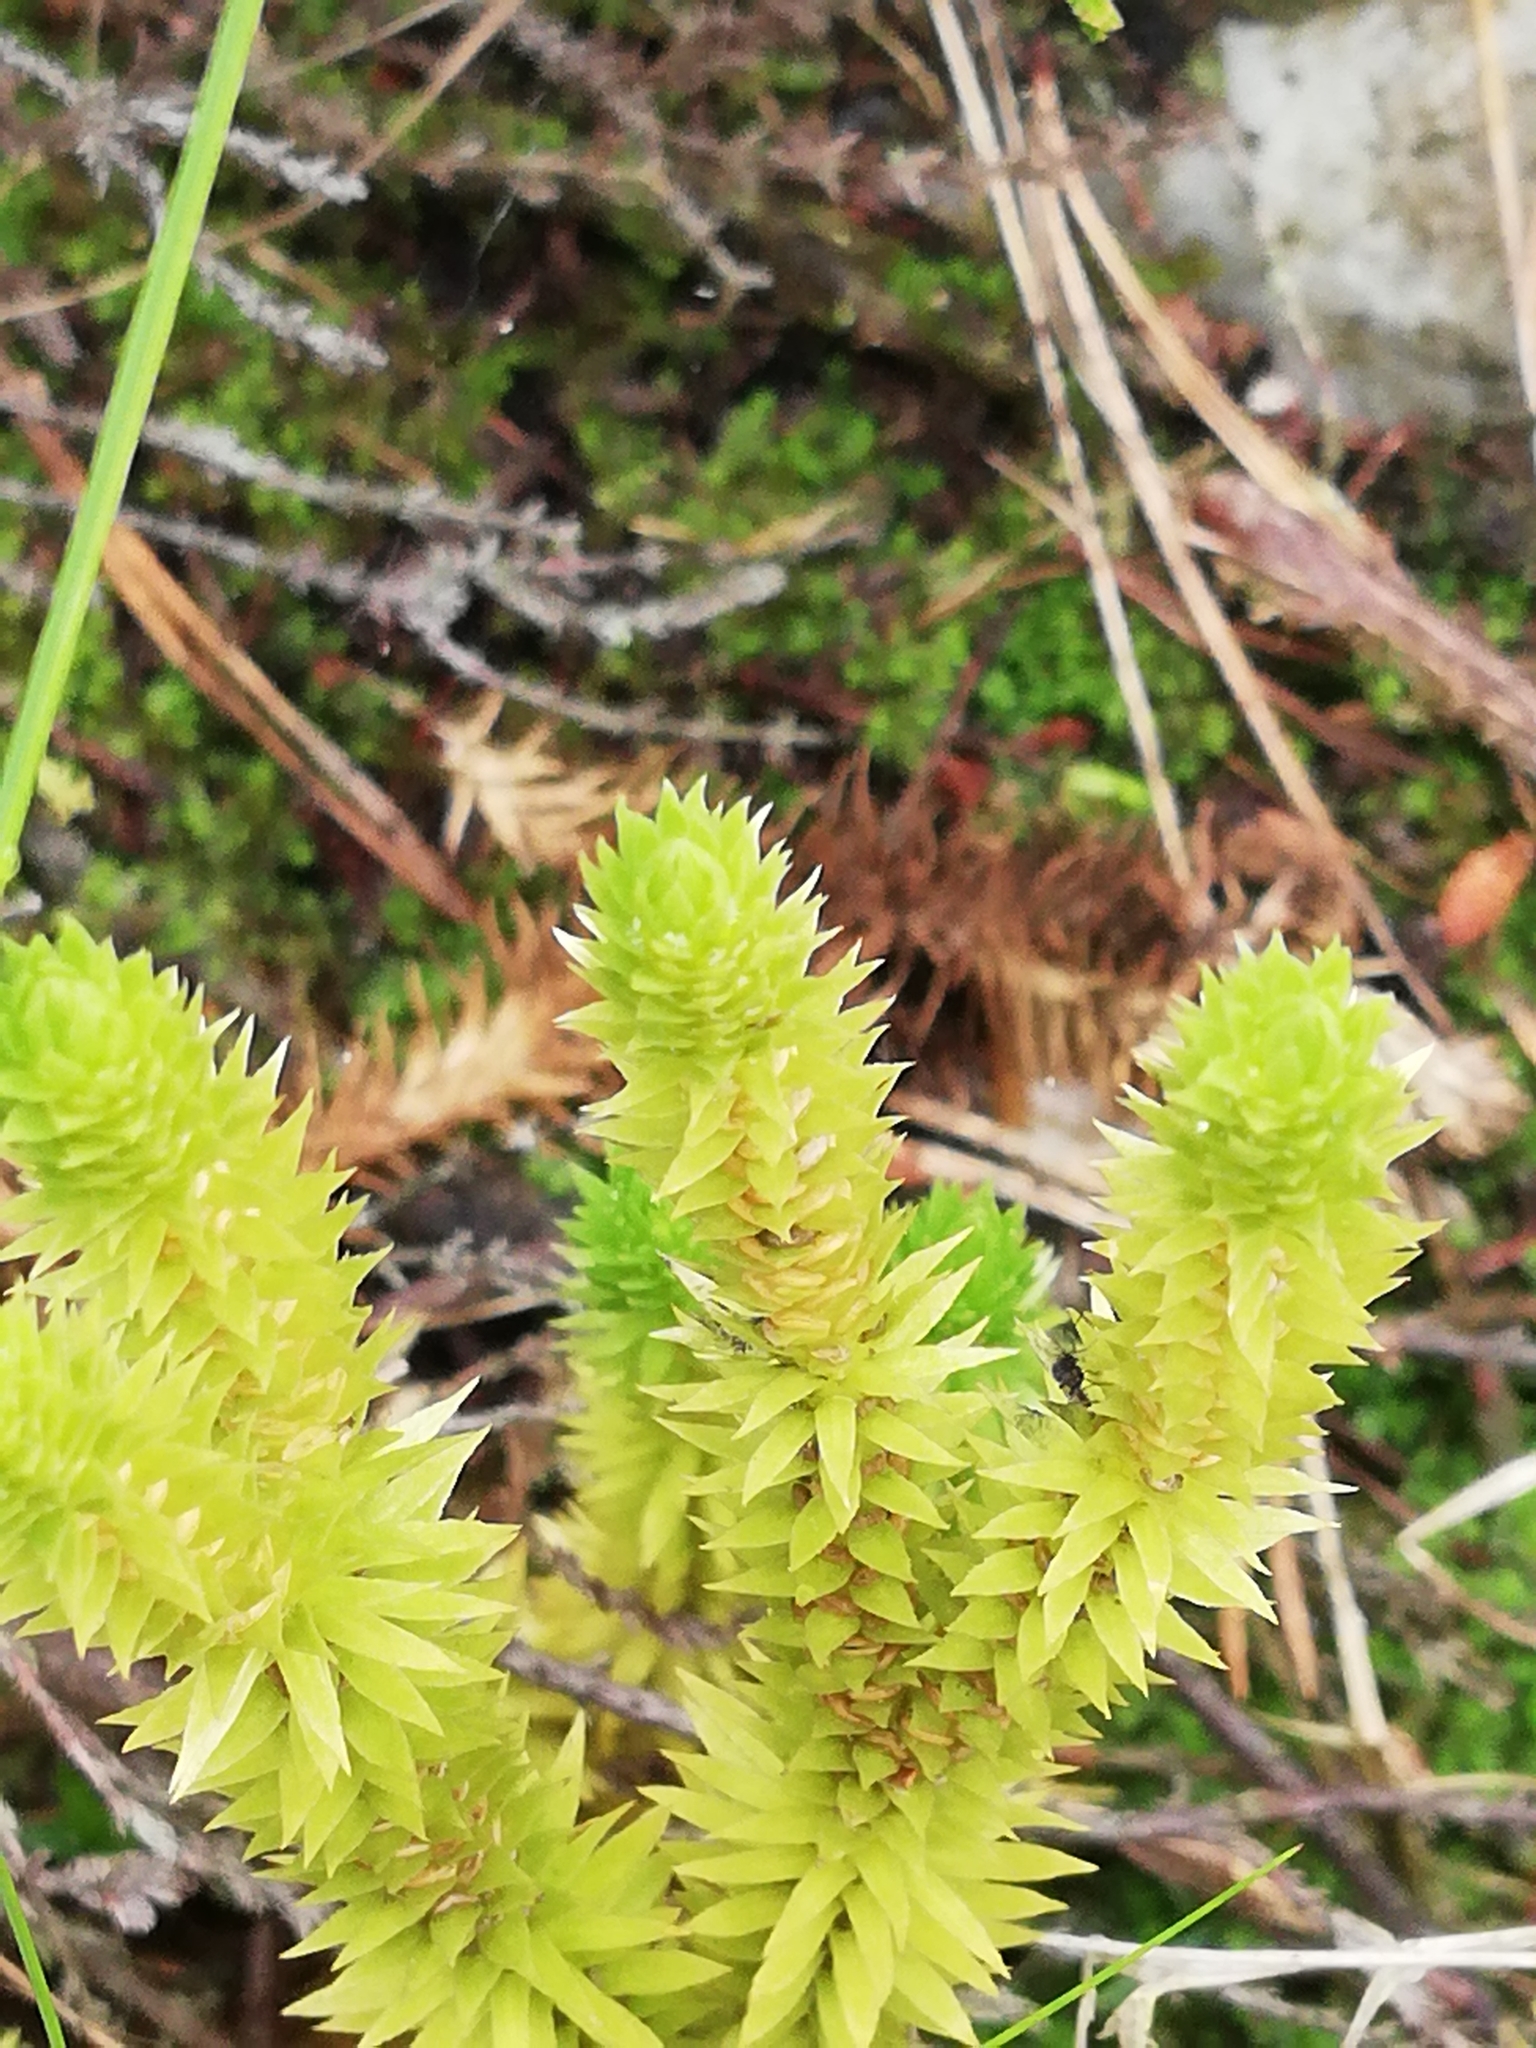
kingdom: Plantae
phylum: Tracheophyta
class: Lycopodiopsida
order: Lycopodiales
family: Lycopodiaceae
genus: Huperzia
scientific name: Huperzia selago
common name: Northern firmoss
